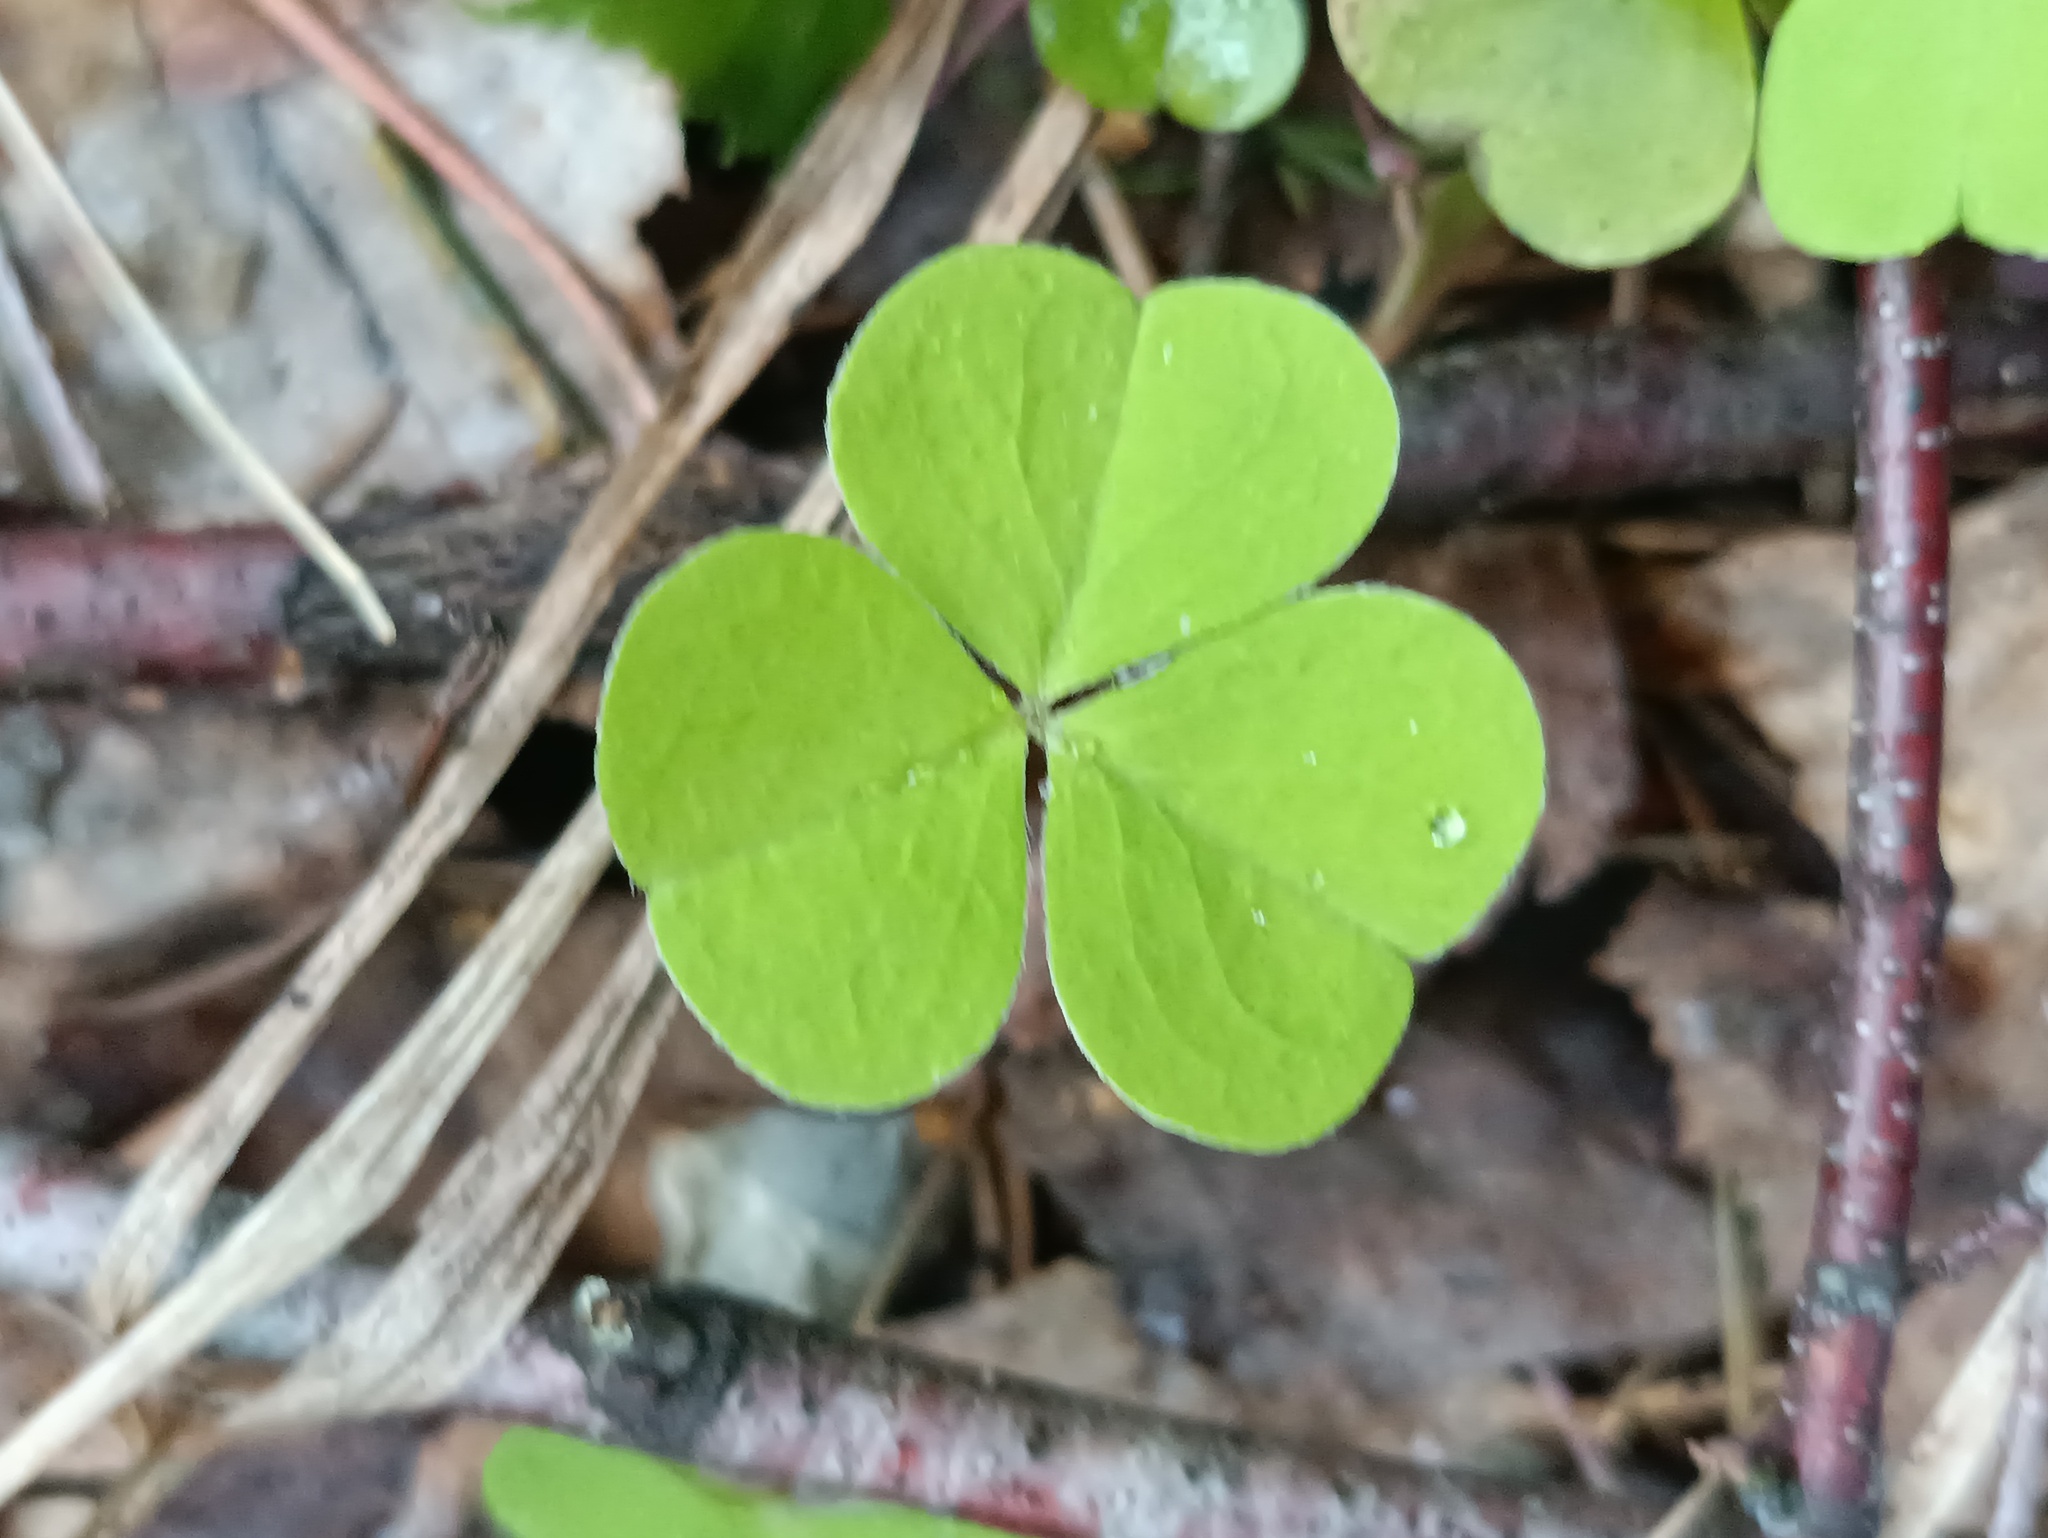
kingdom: Plantae
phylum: Tracheophyta
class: Magnoliopsida
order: Oxalidales
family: Oxalidaceae
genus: Oxalis
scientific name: Oxalis acetosella
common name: Wood-sorrel
